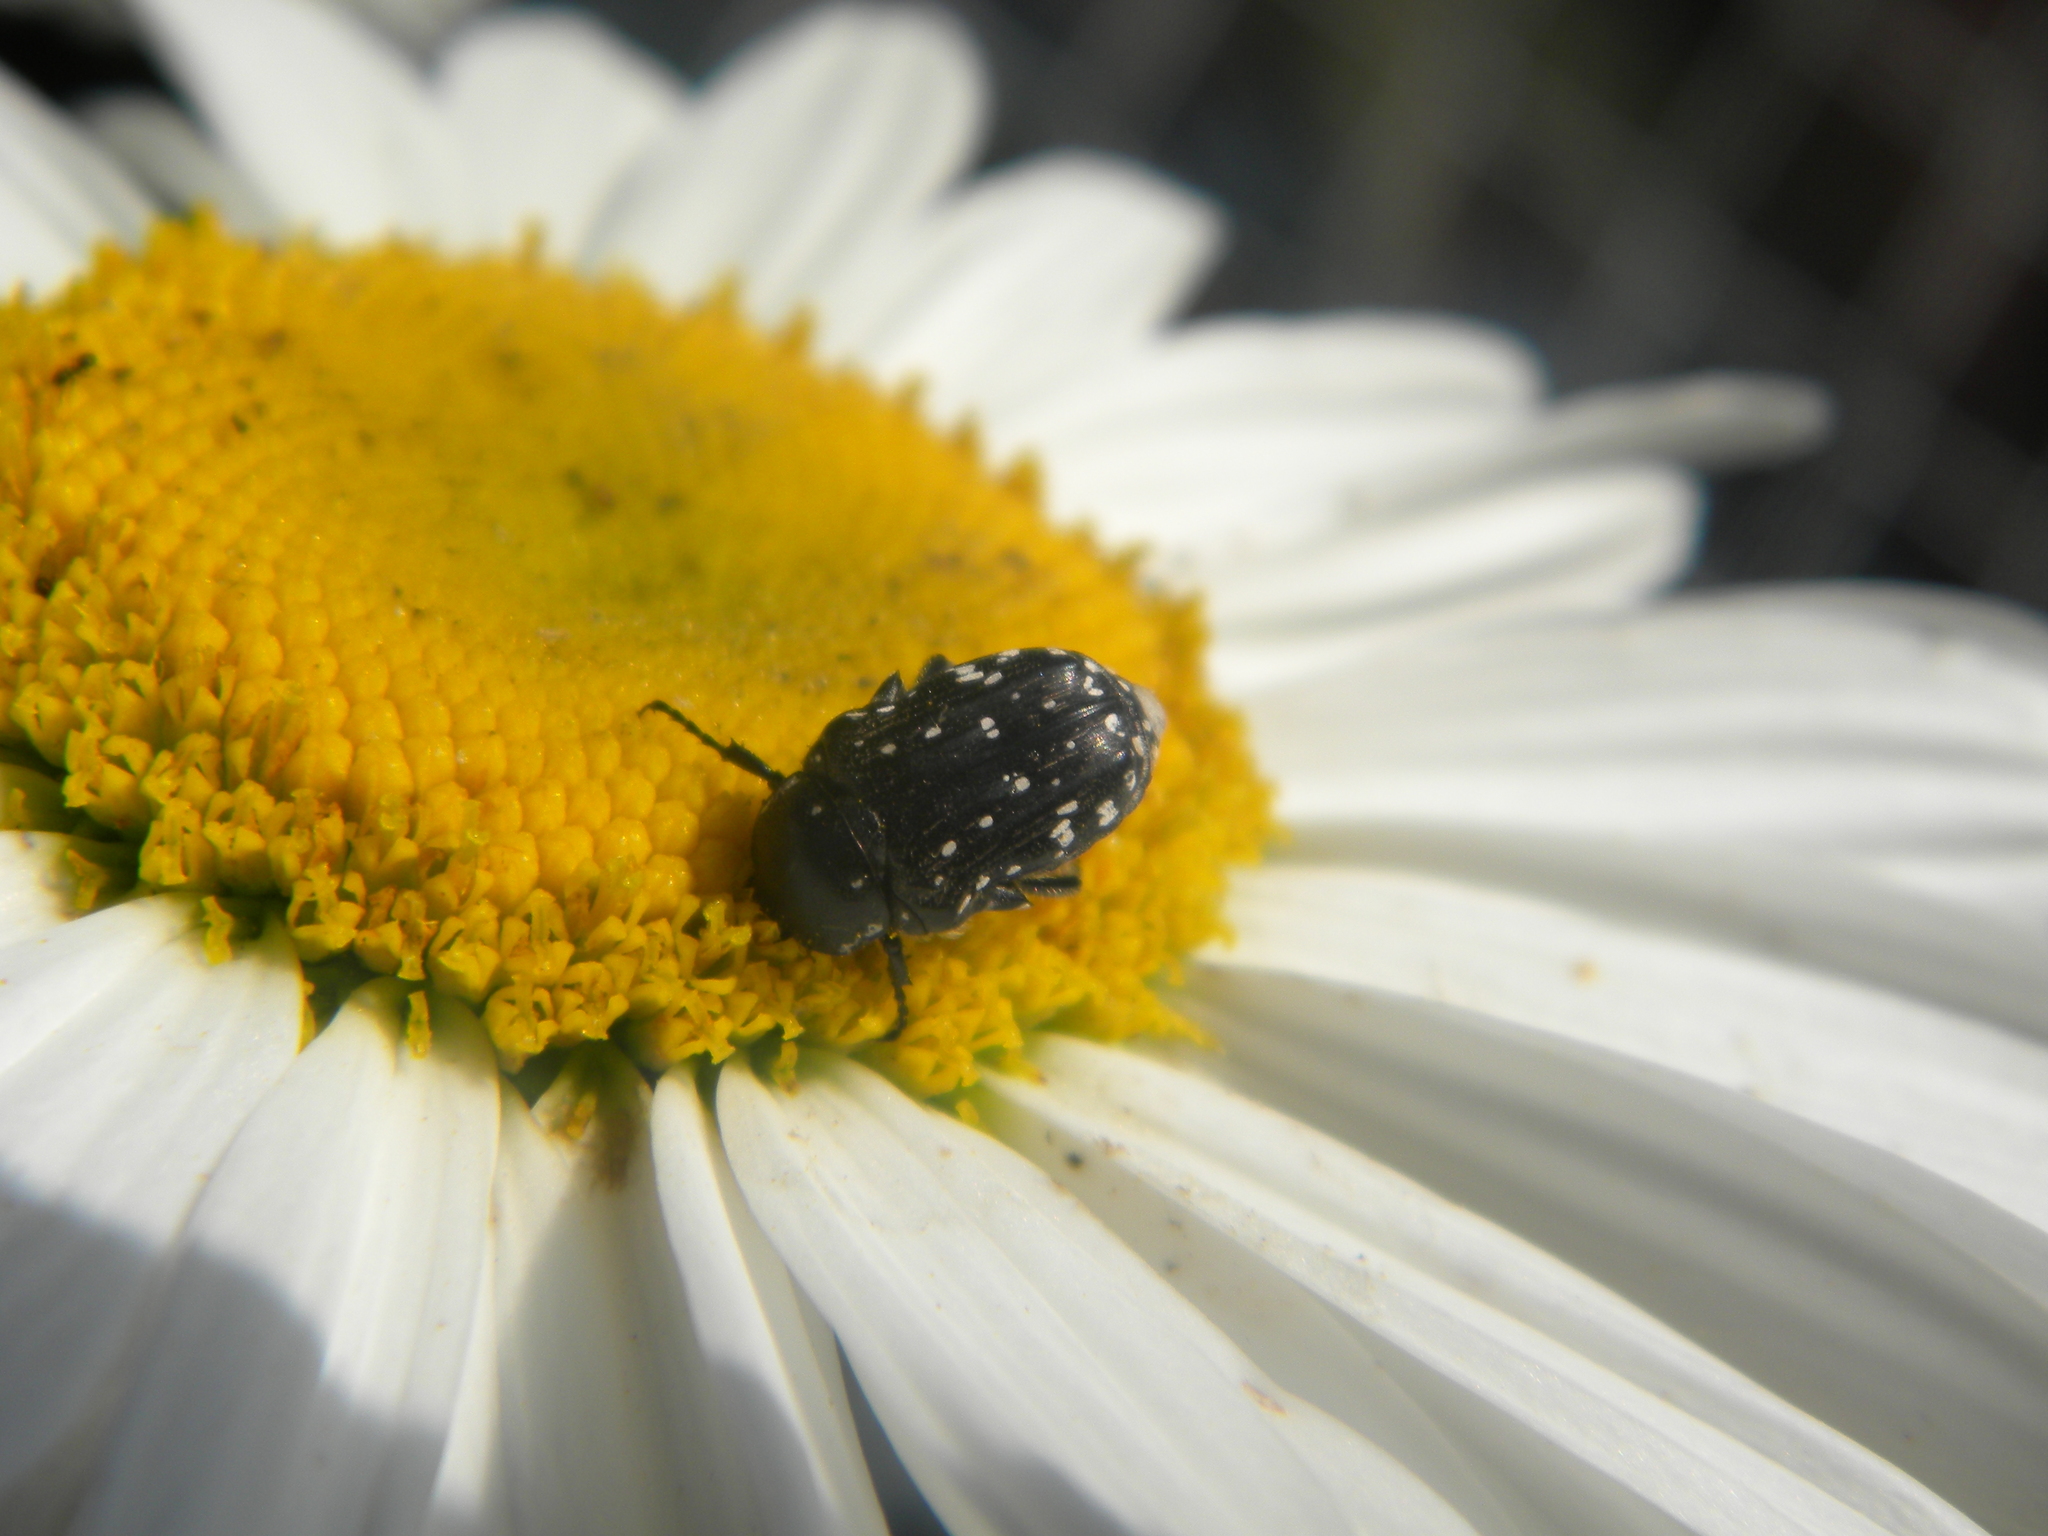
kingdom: Animalia
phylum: Arthropoda
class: Insecta
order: Coleoptera
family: Scarabaeidae
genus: Oxythyrea
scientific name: Oxythyrea cinctella
